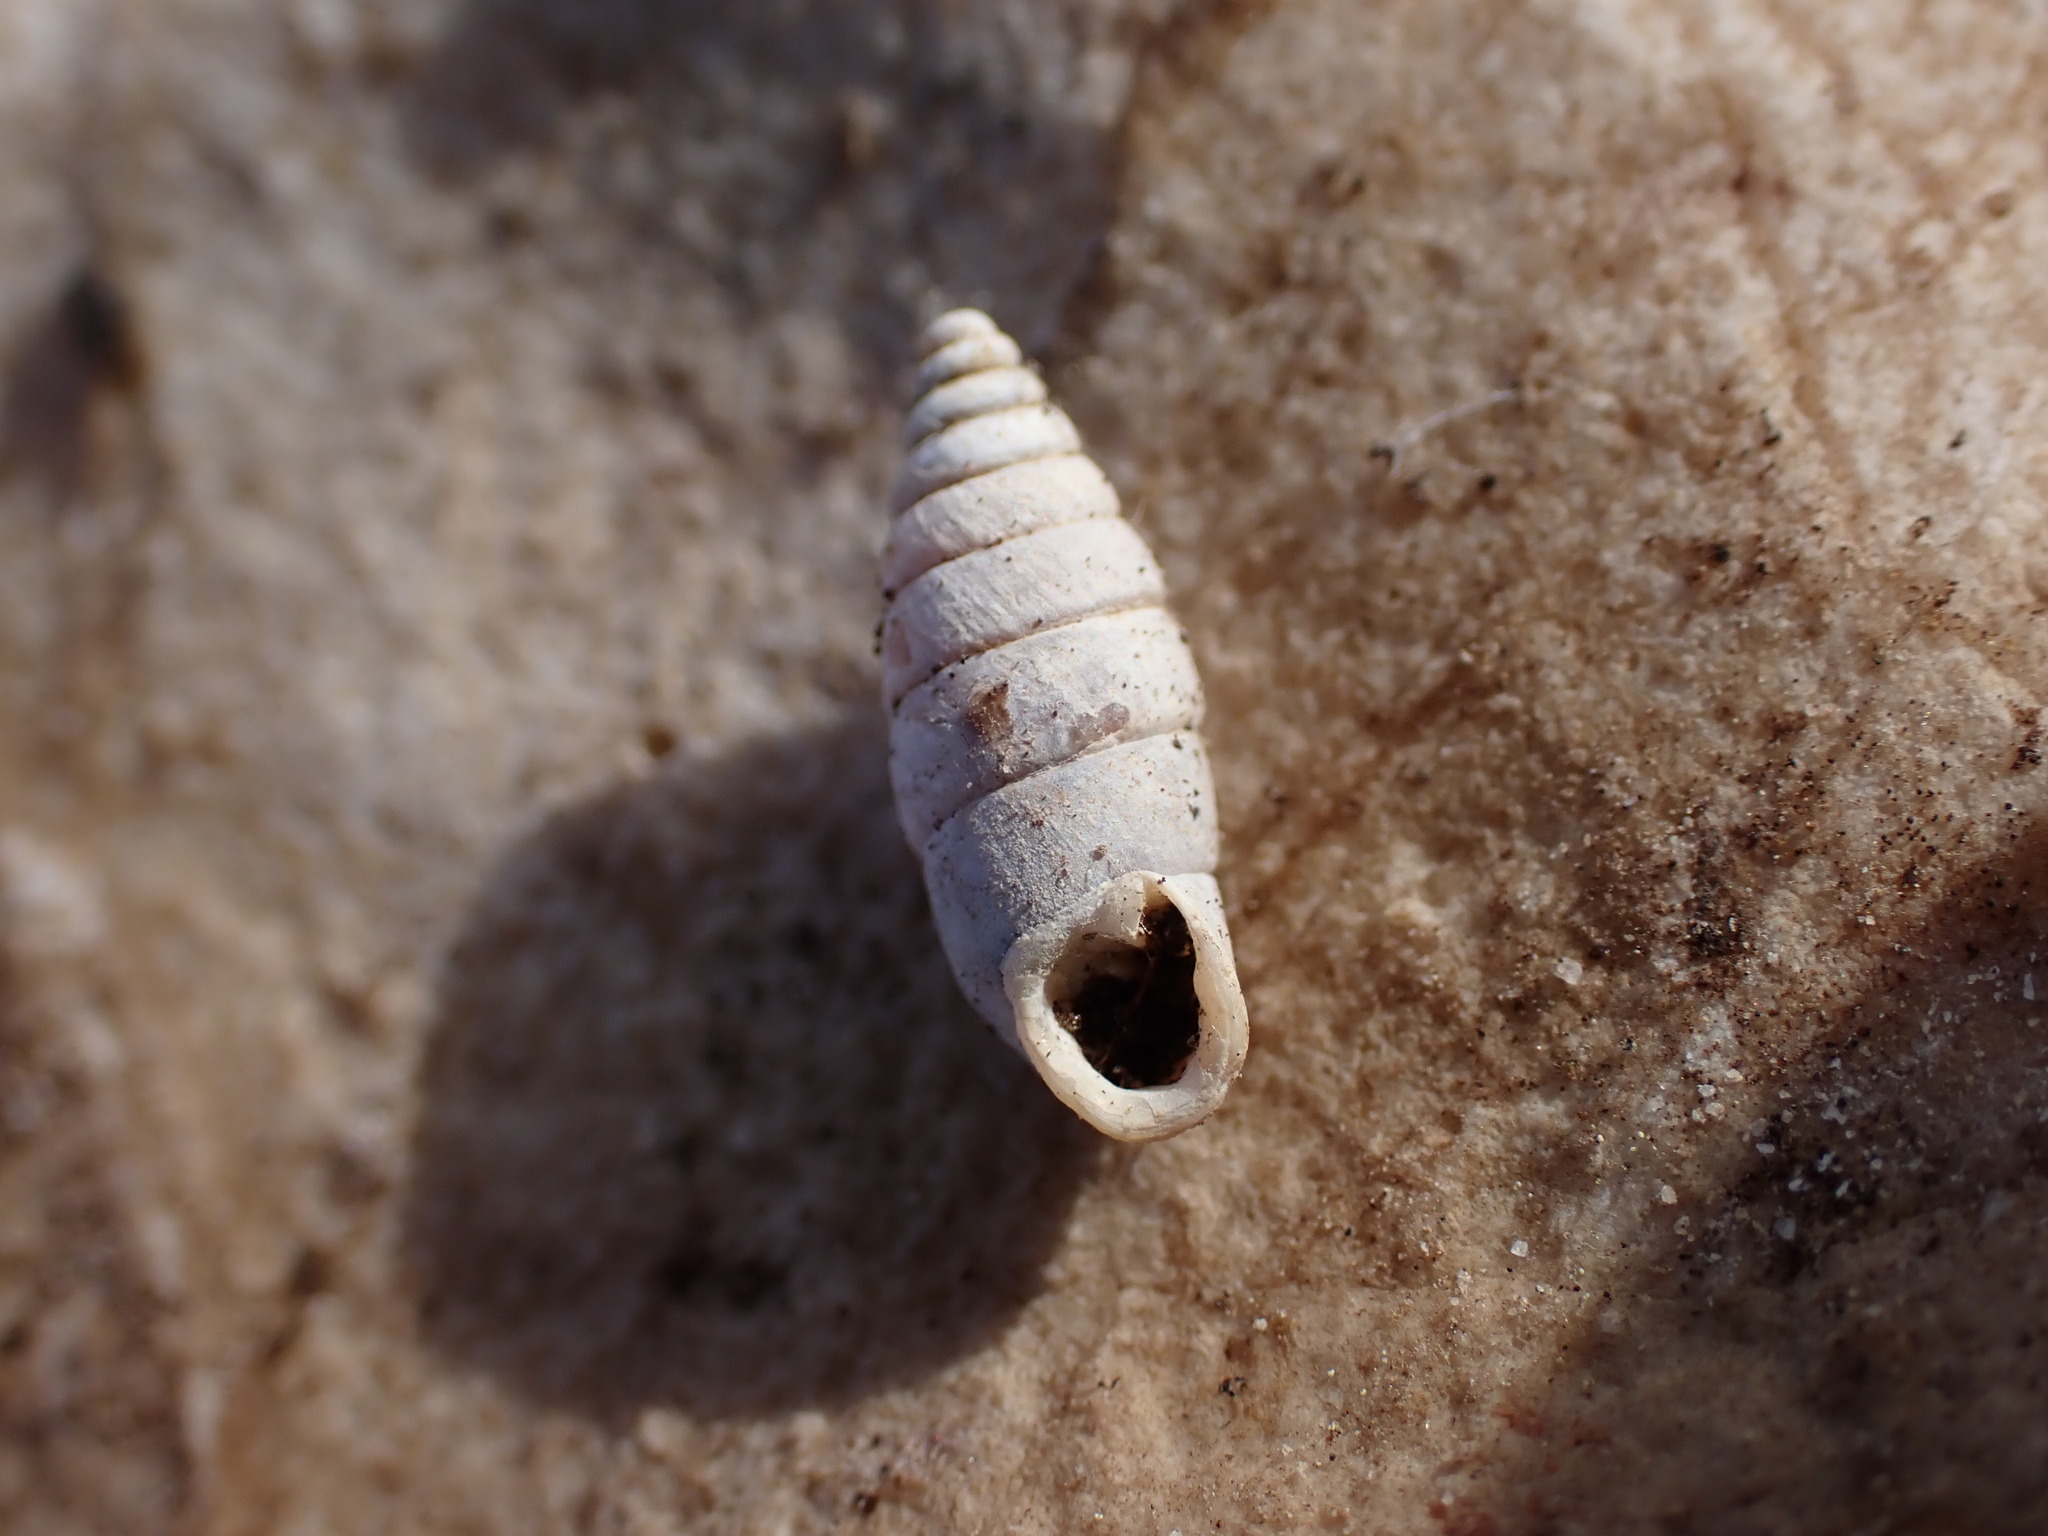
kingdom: Animalia
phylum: Mollusca
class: Gastropoda
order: Stylommatophora
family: Chondrinidae
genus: Granaria
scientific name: Granaria variabilis
